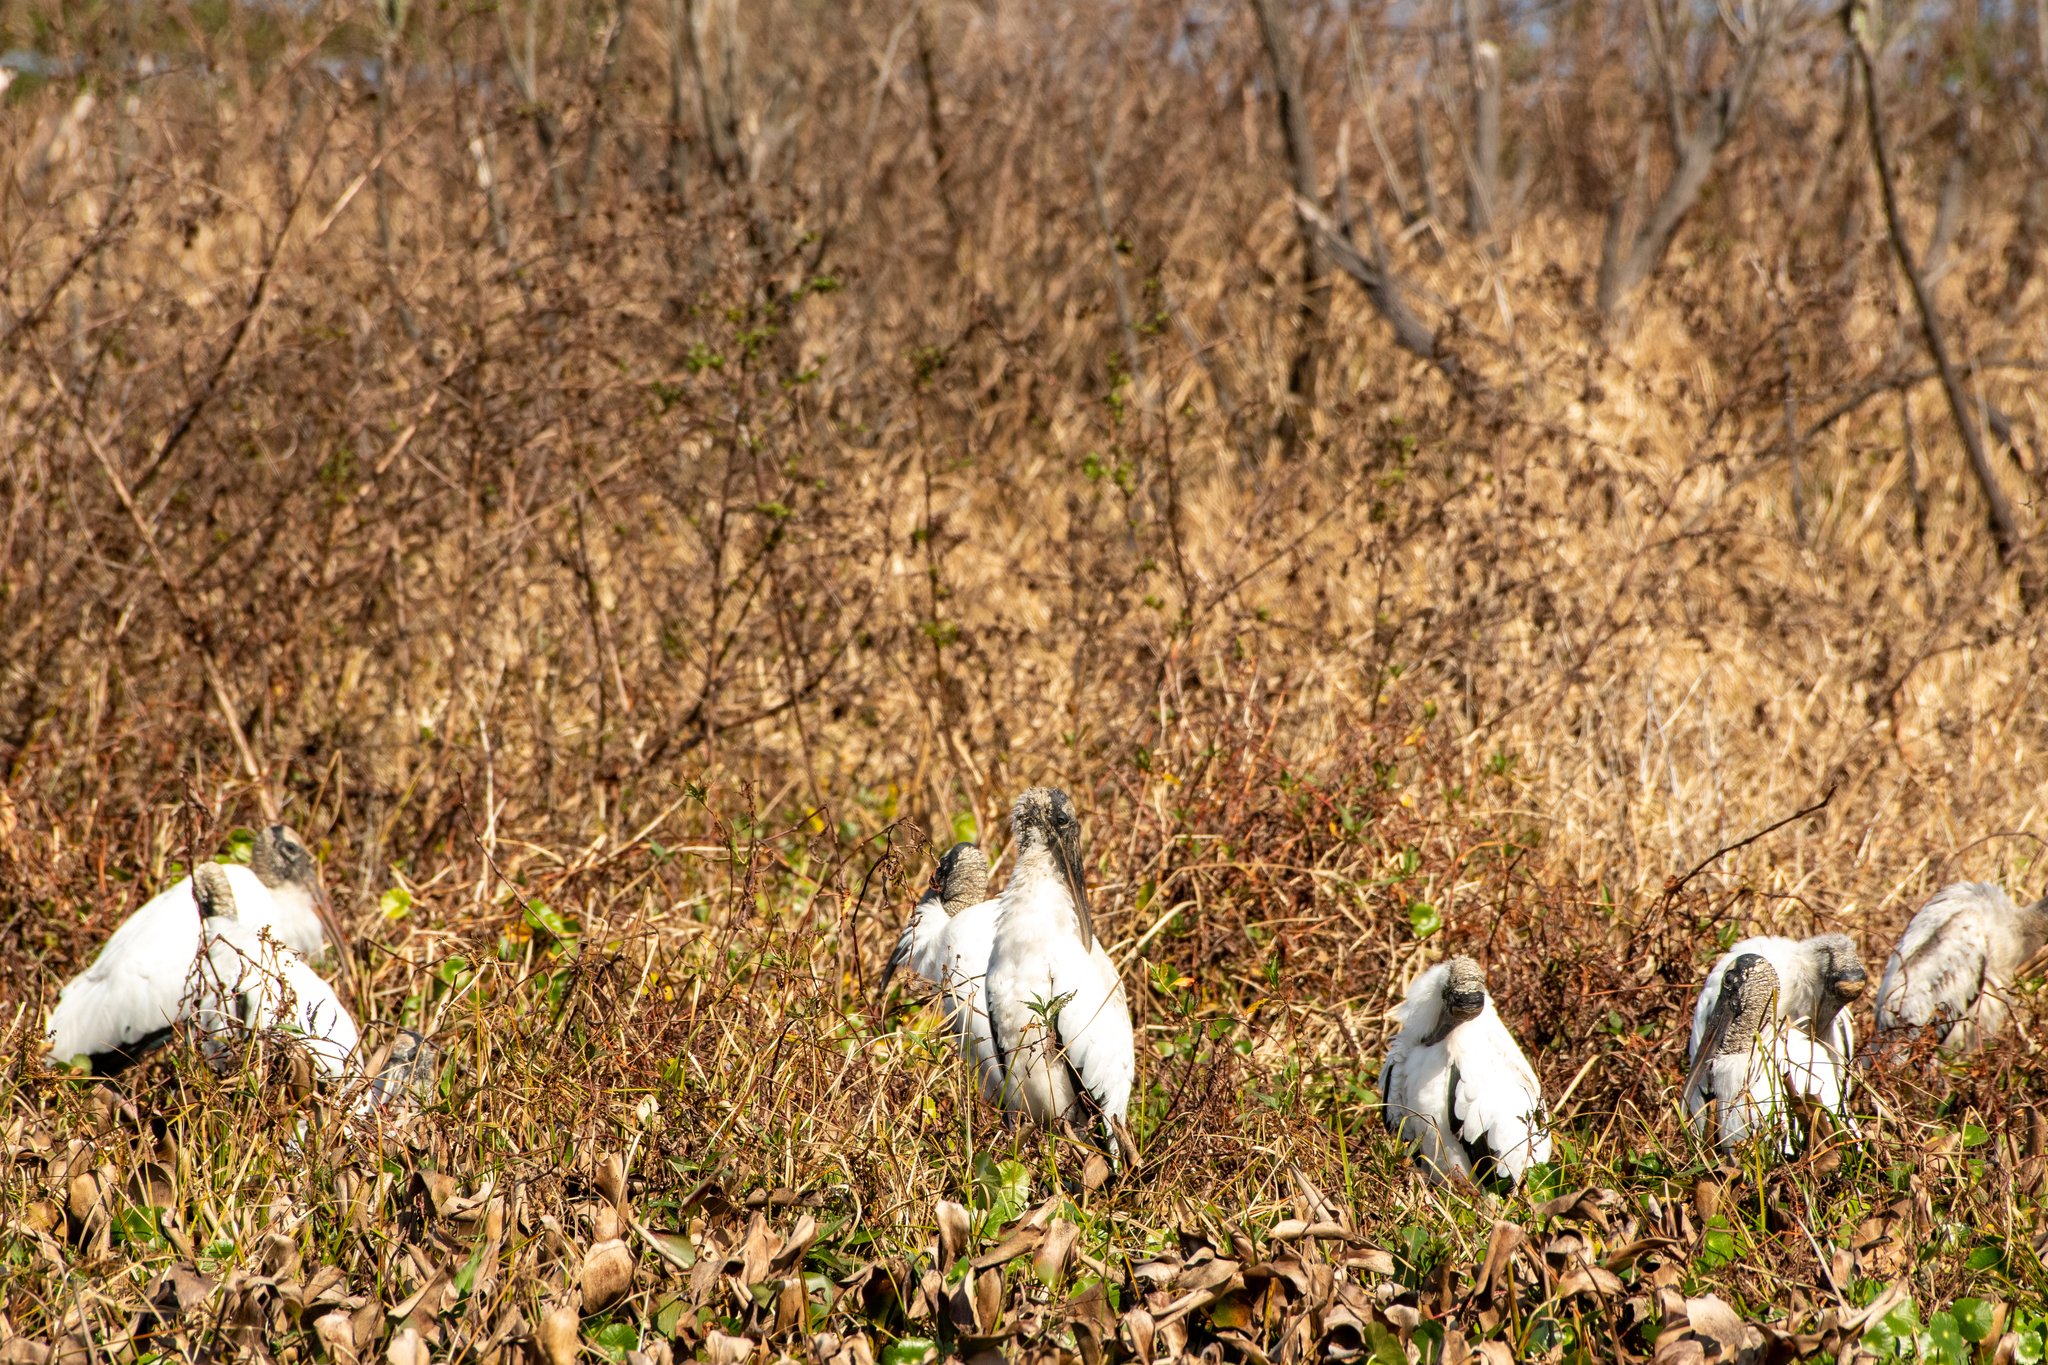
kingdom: Animalia
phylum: Chordata
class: Aves
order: Ciconiiformes
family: Ciconiidae
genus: Mycteria
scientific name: Mycteria americana
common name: Wood stork
